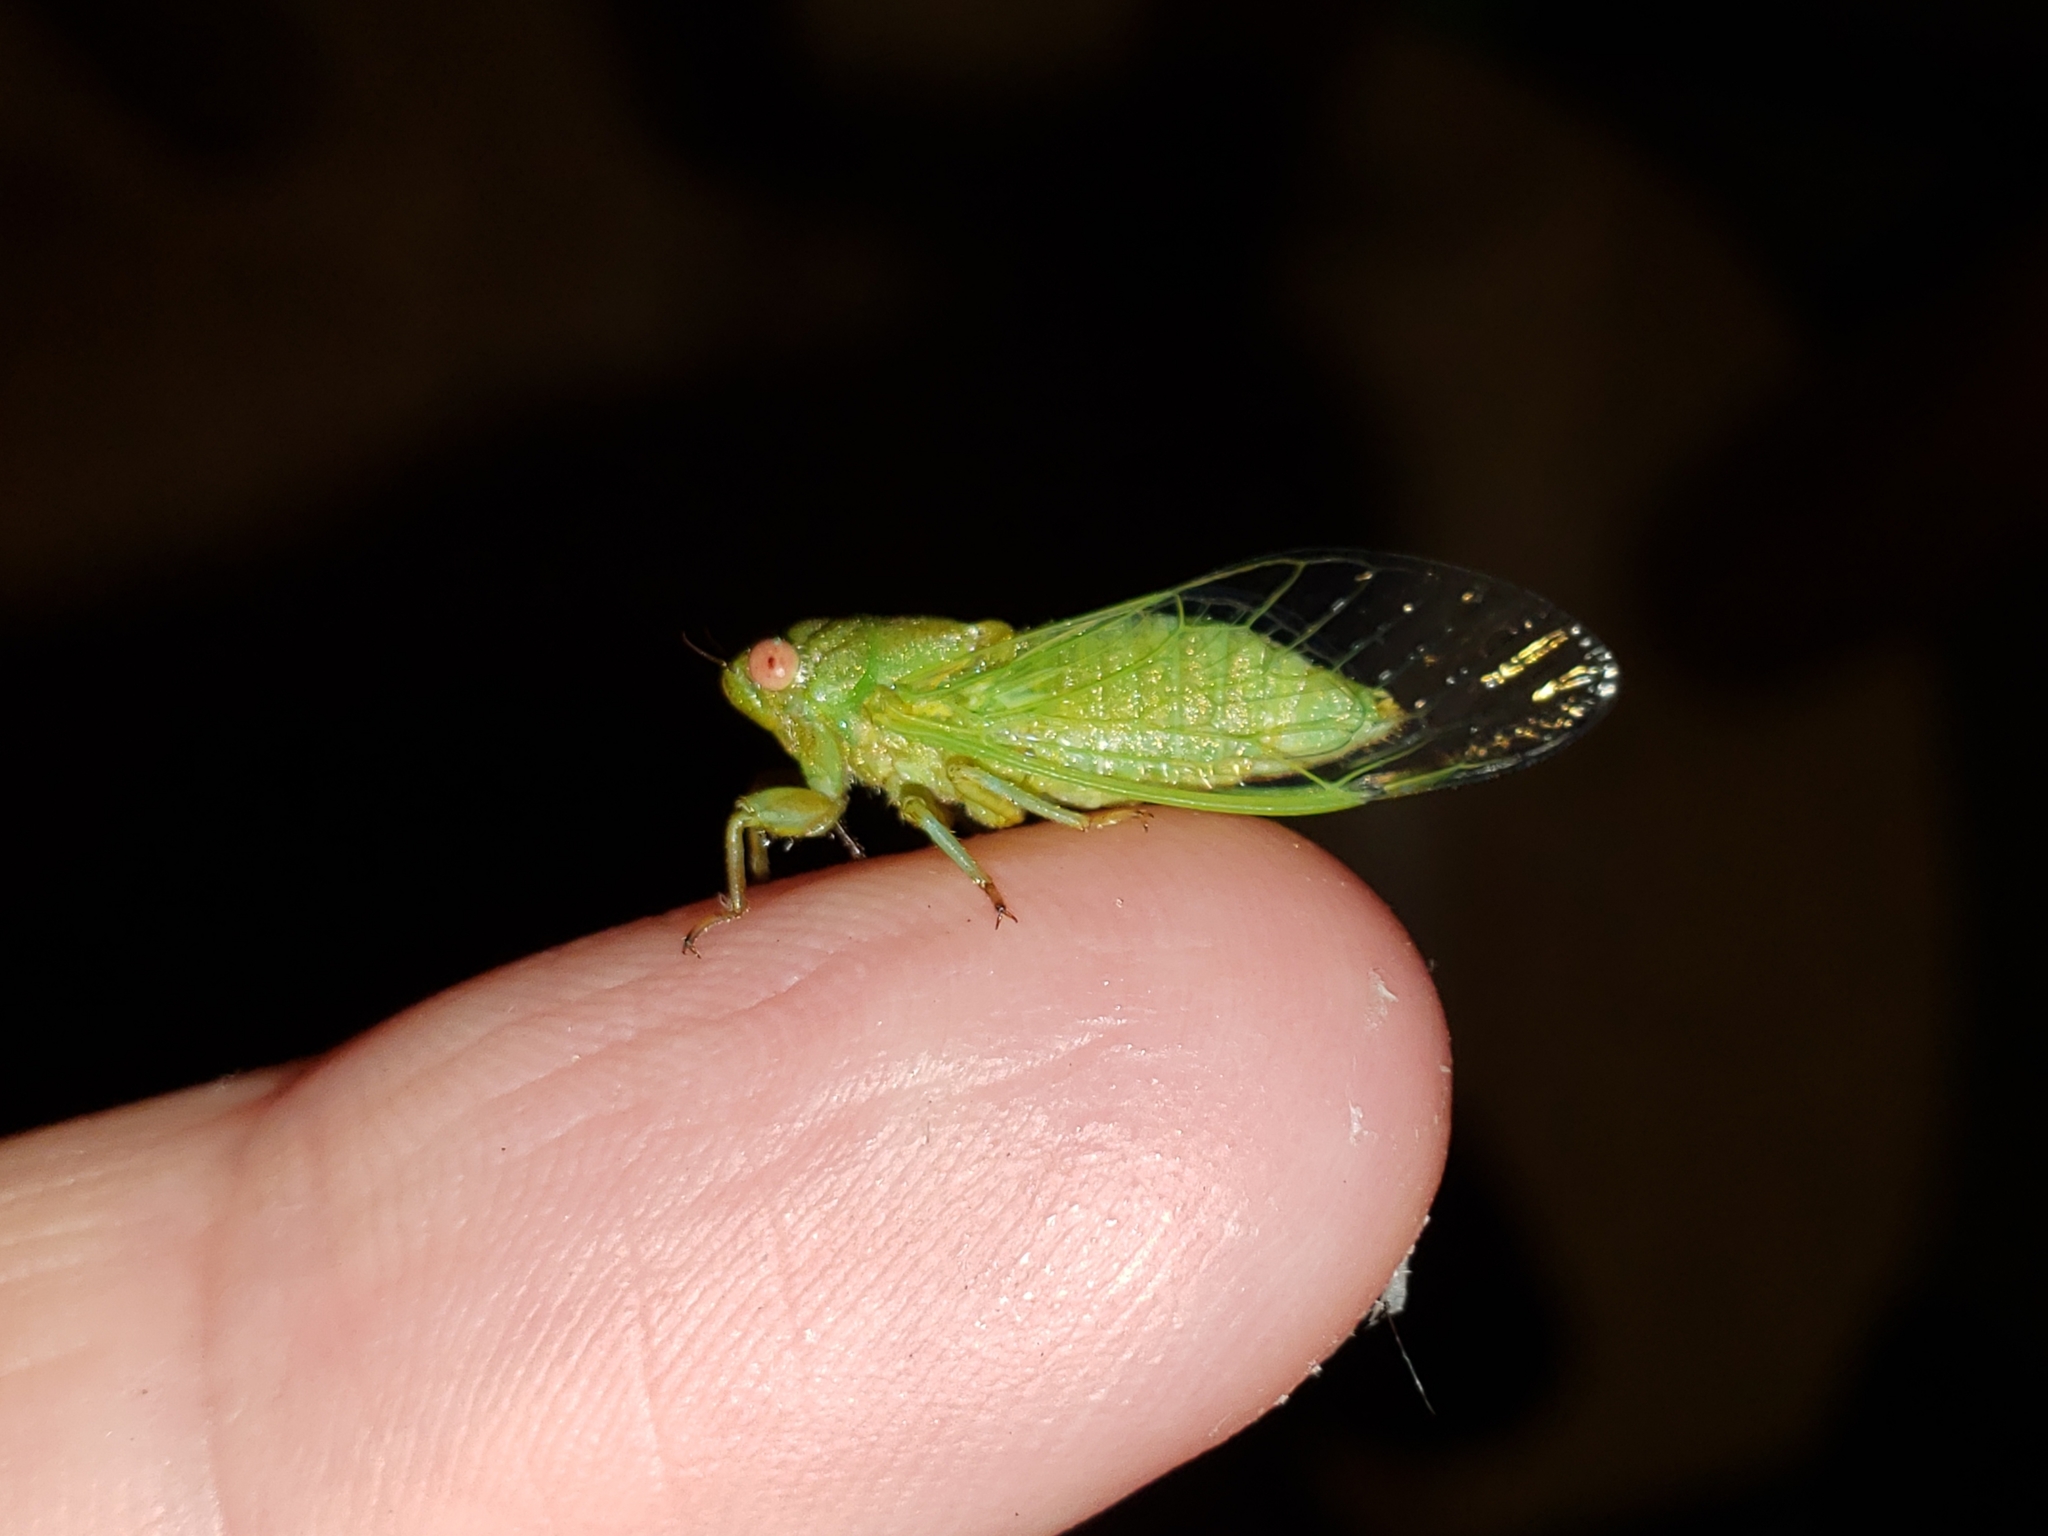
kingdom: Animalia
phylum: Arthropoda
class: Insecta
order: Hemiptera
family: Cicadidae
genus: Cicadettana
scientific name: Cicadettana calliope
